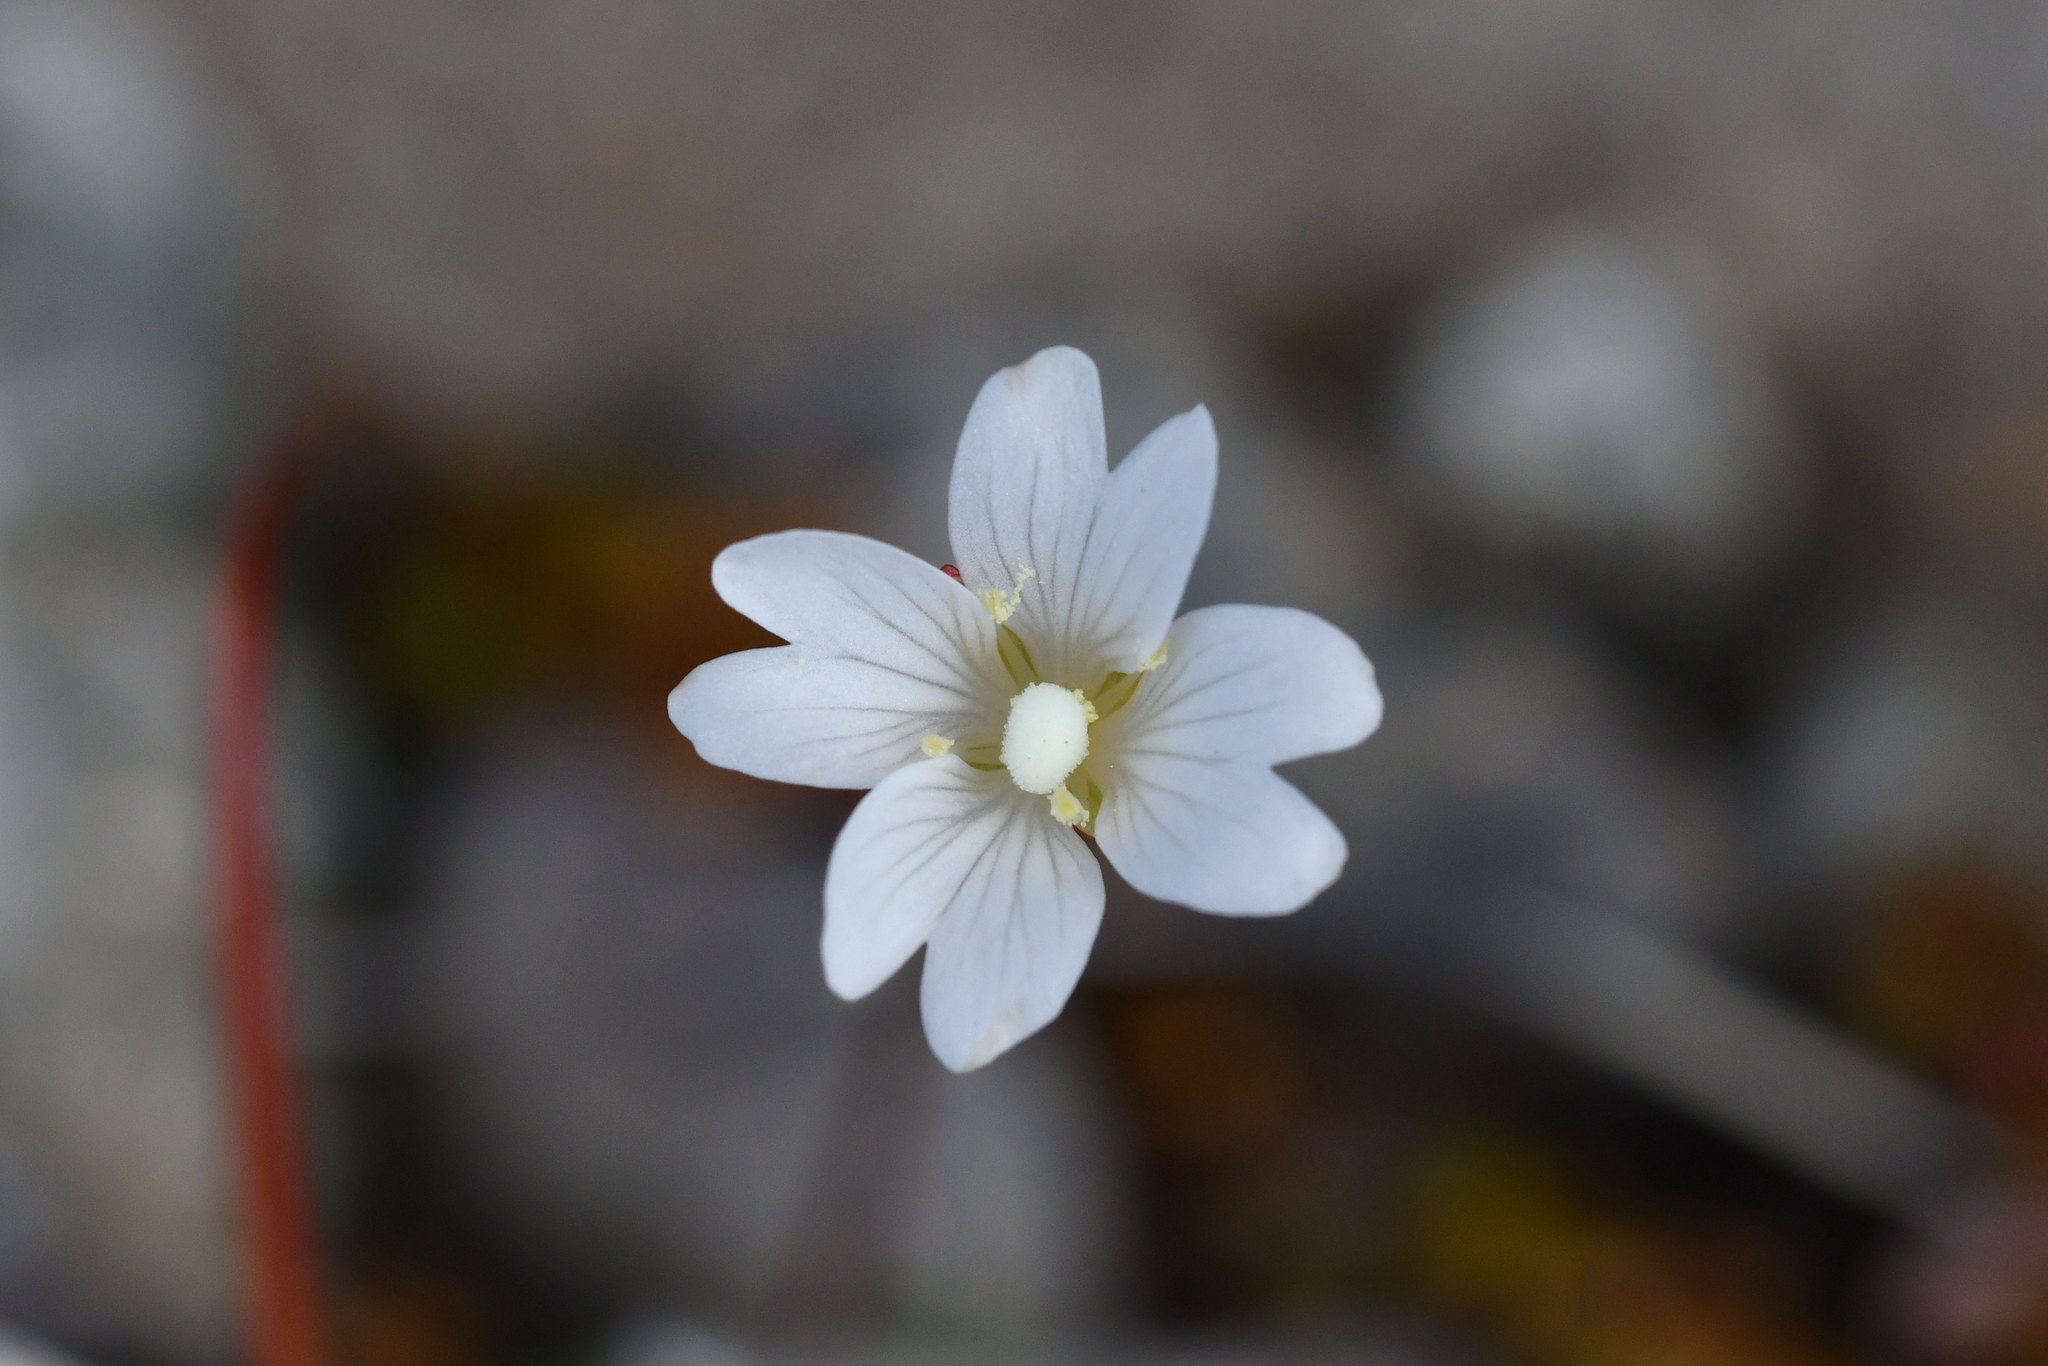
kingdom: Plantae
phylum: Tracheophyta
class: Magnoliopsida
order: Myrtales
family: Onagraceae
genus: Epilobium
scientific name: Epilobium pernitens
